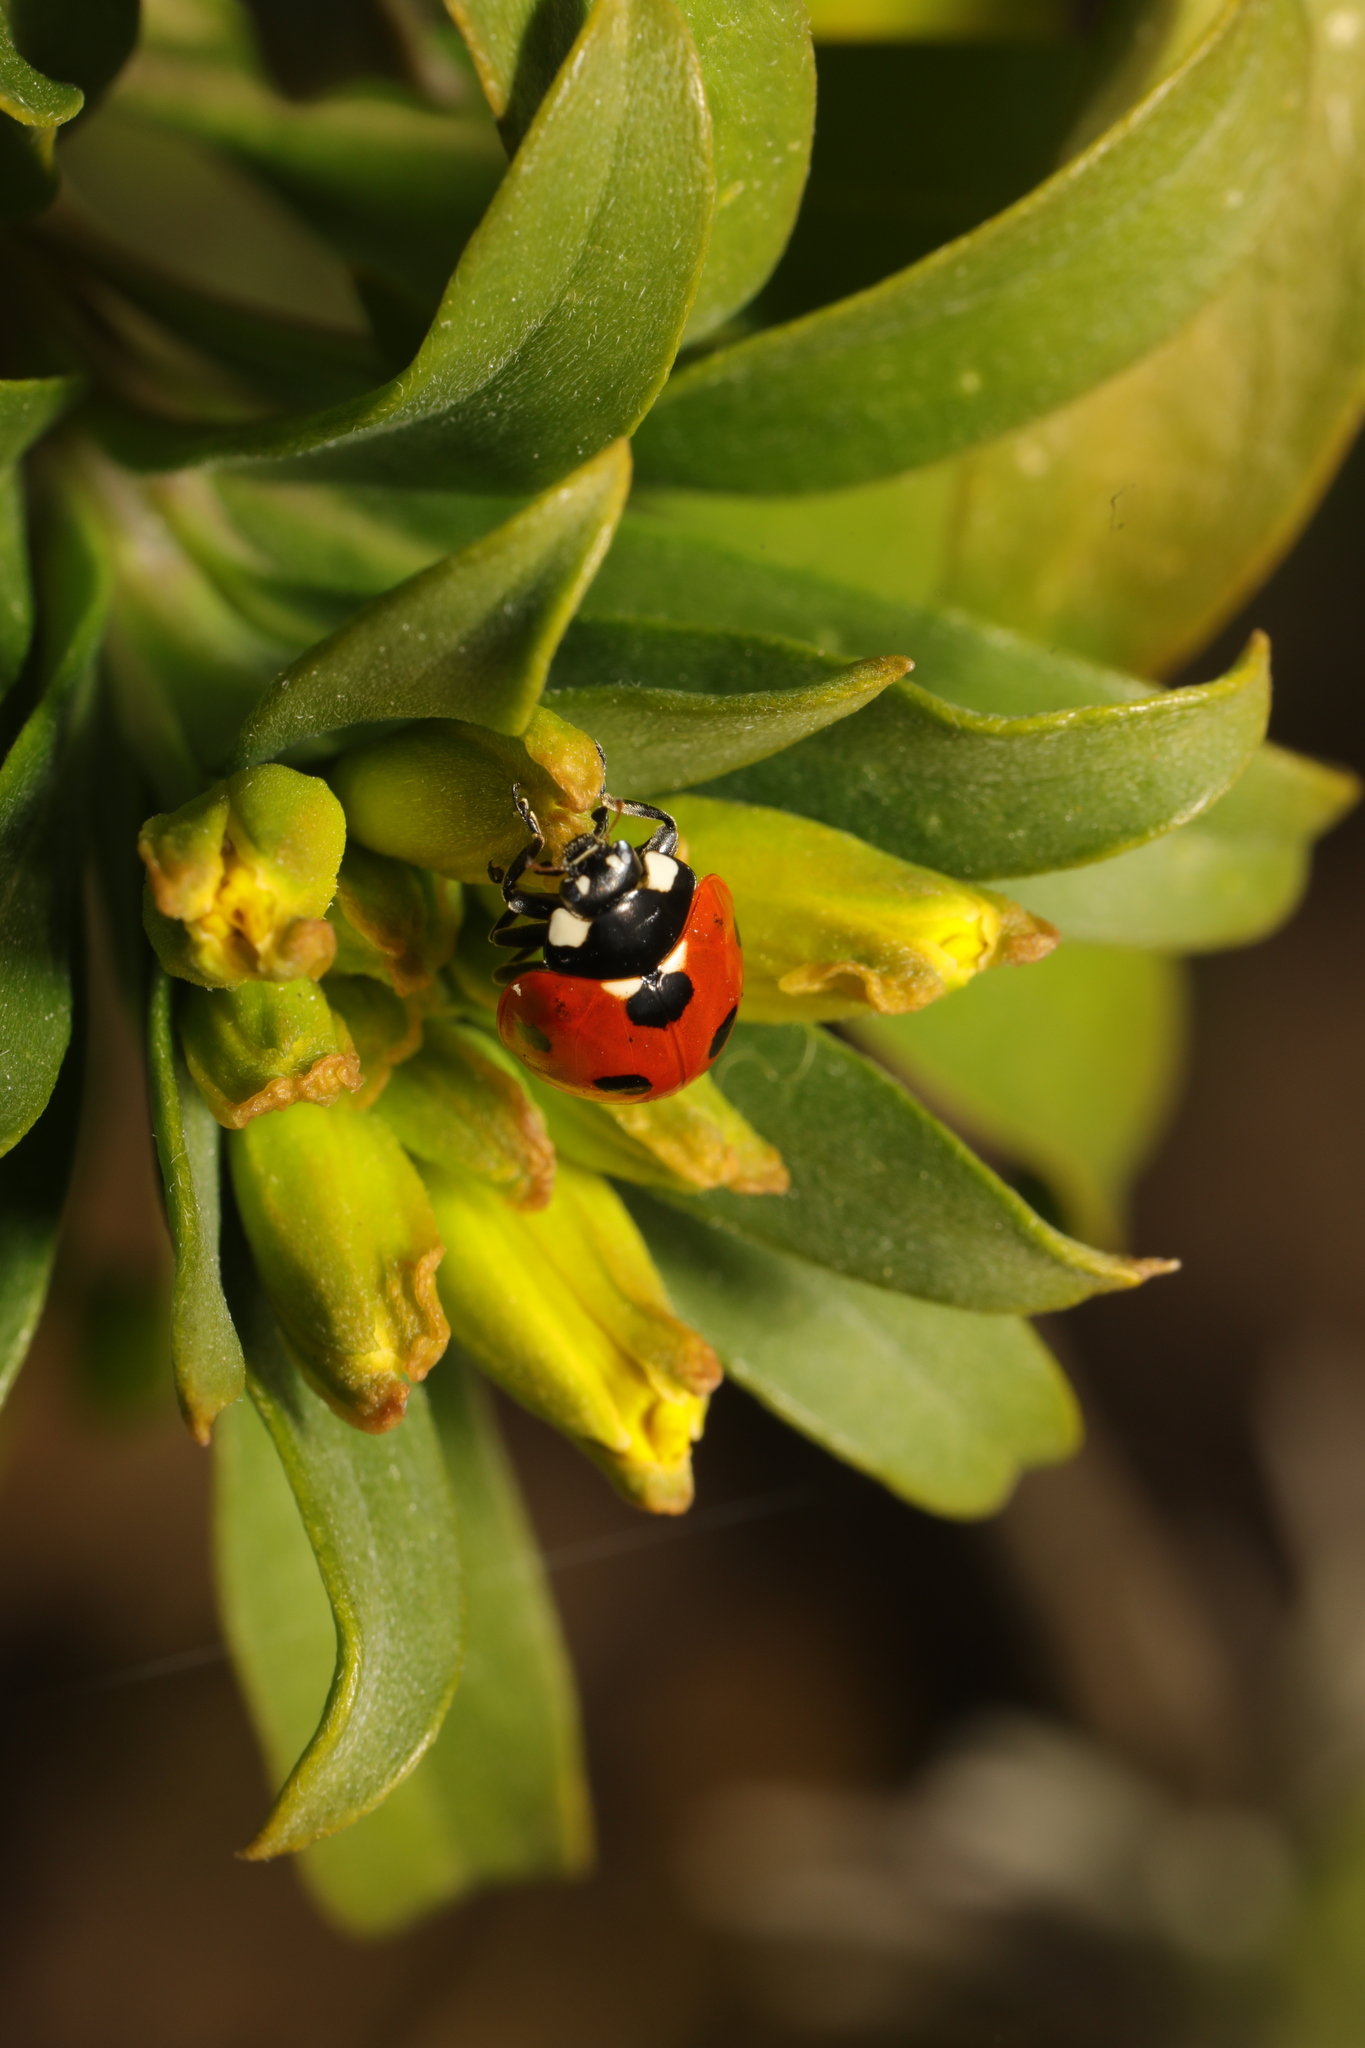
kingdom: Animalia
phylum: Arthropoda
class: Insecta
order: Coleoptera
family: Coccinellidae
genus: Coccinella
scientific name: Coccinella septempunctata
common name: Sevenspotted lady beetle
